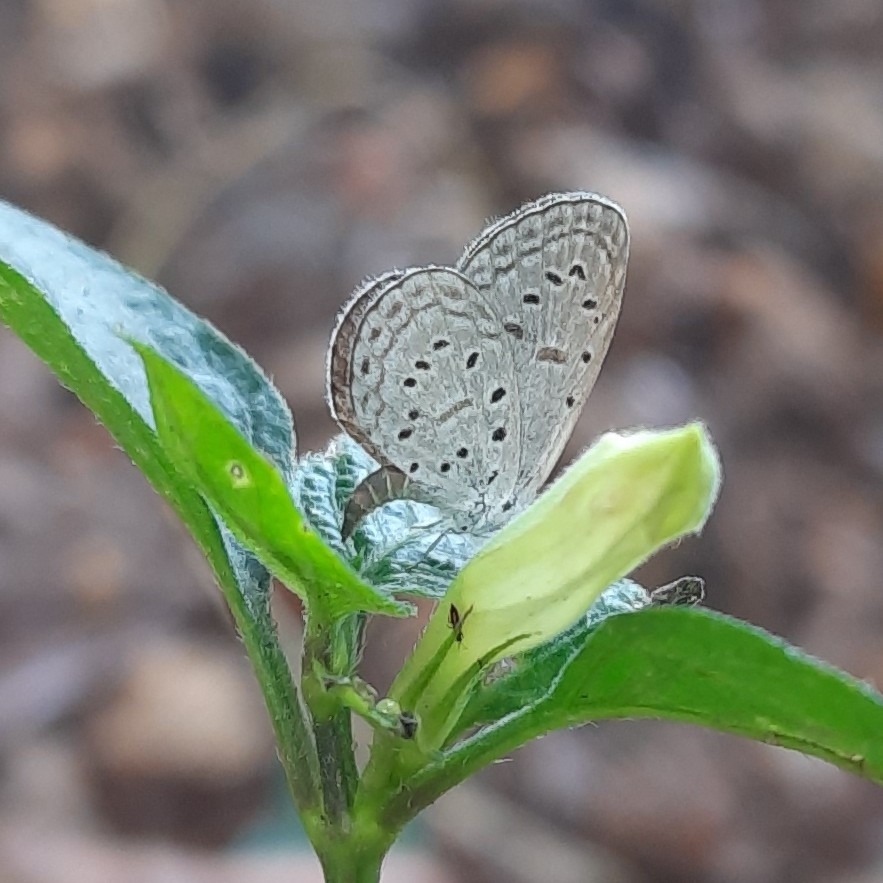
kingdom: Animalia
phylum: Arthropoda
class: Insecta
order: Lepidoptera
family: Lycaenidae
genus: Zizula
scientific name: Zizula hylax
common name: Gaika blue
